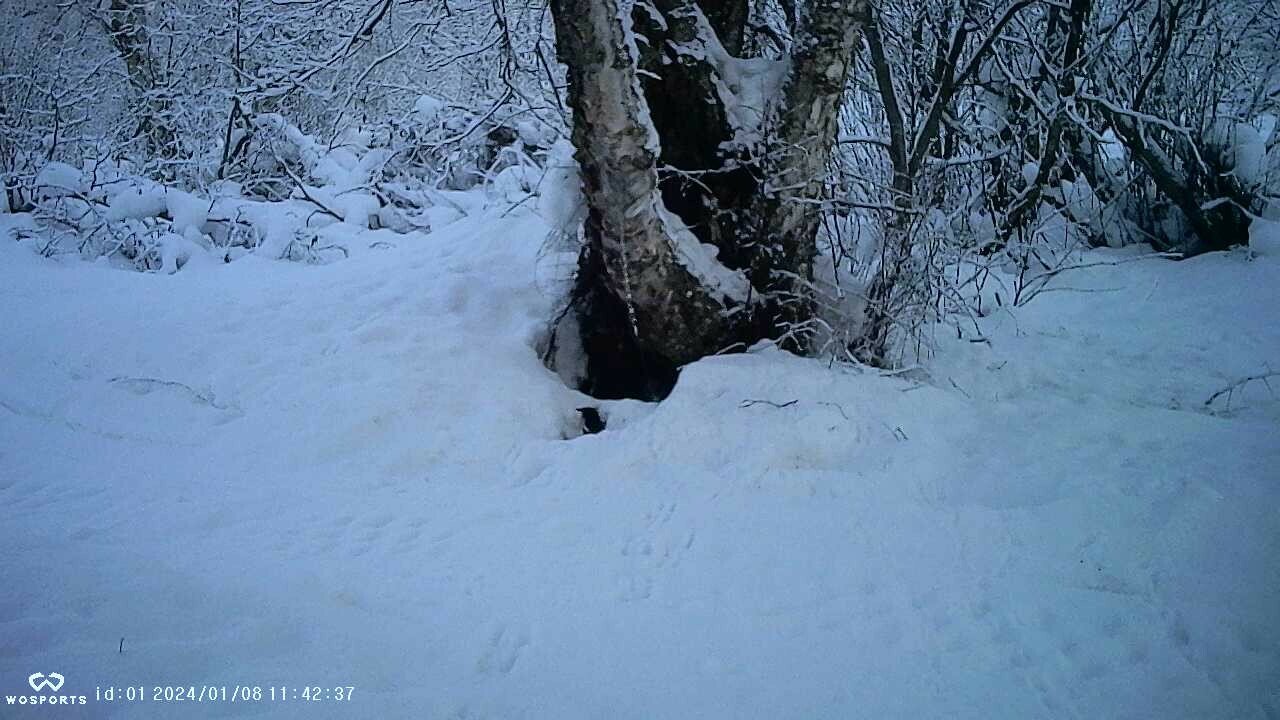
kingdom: Animalia
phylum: Chordata
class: Aves
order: Passeriformes
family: Corvidae
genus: Pica
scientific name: Pica hudsonia
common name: Black-billed magpie
